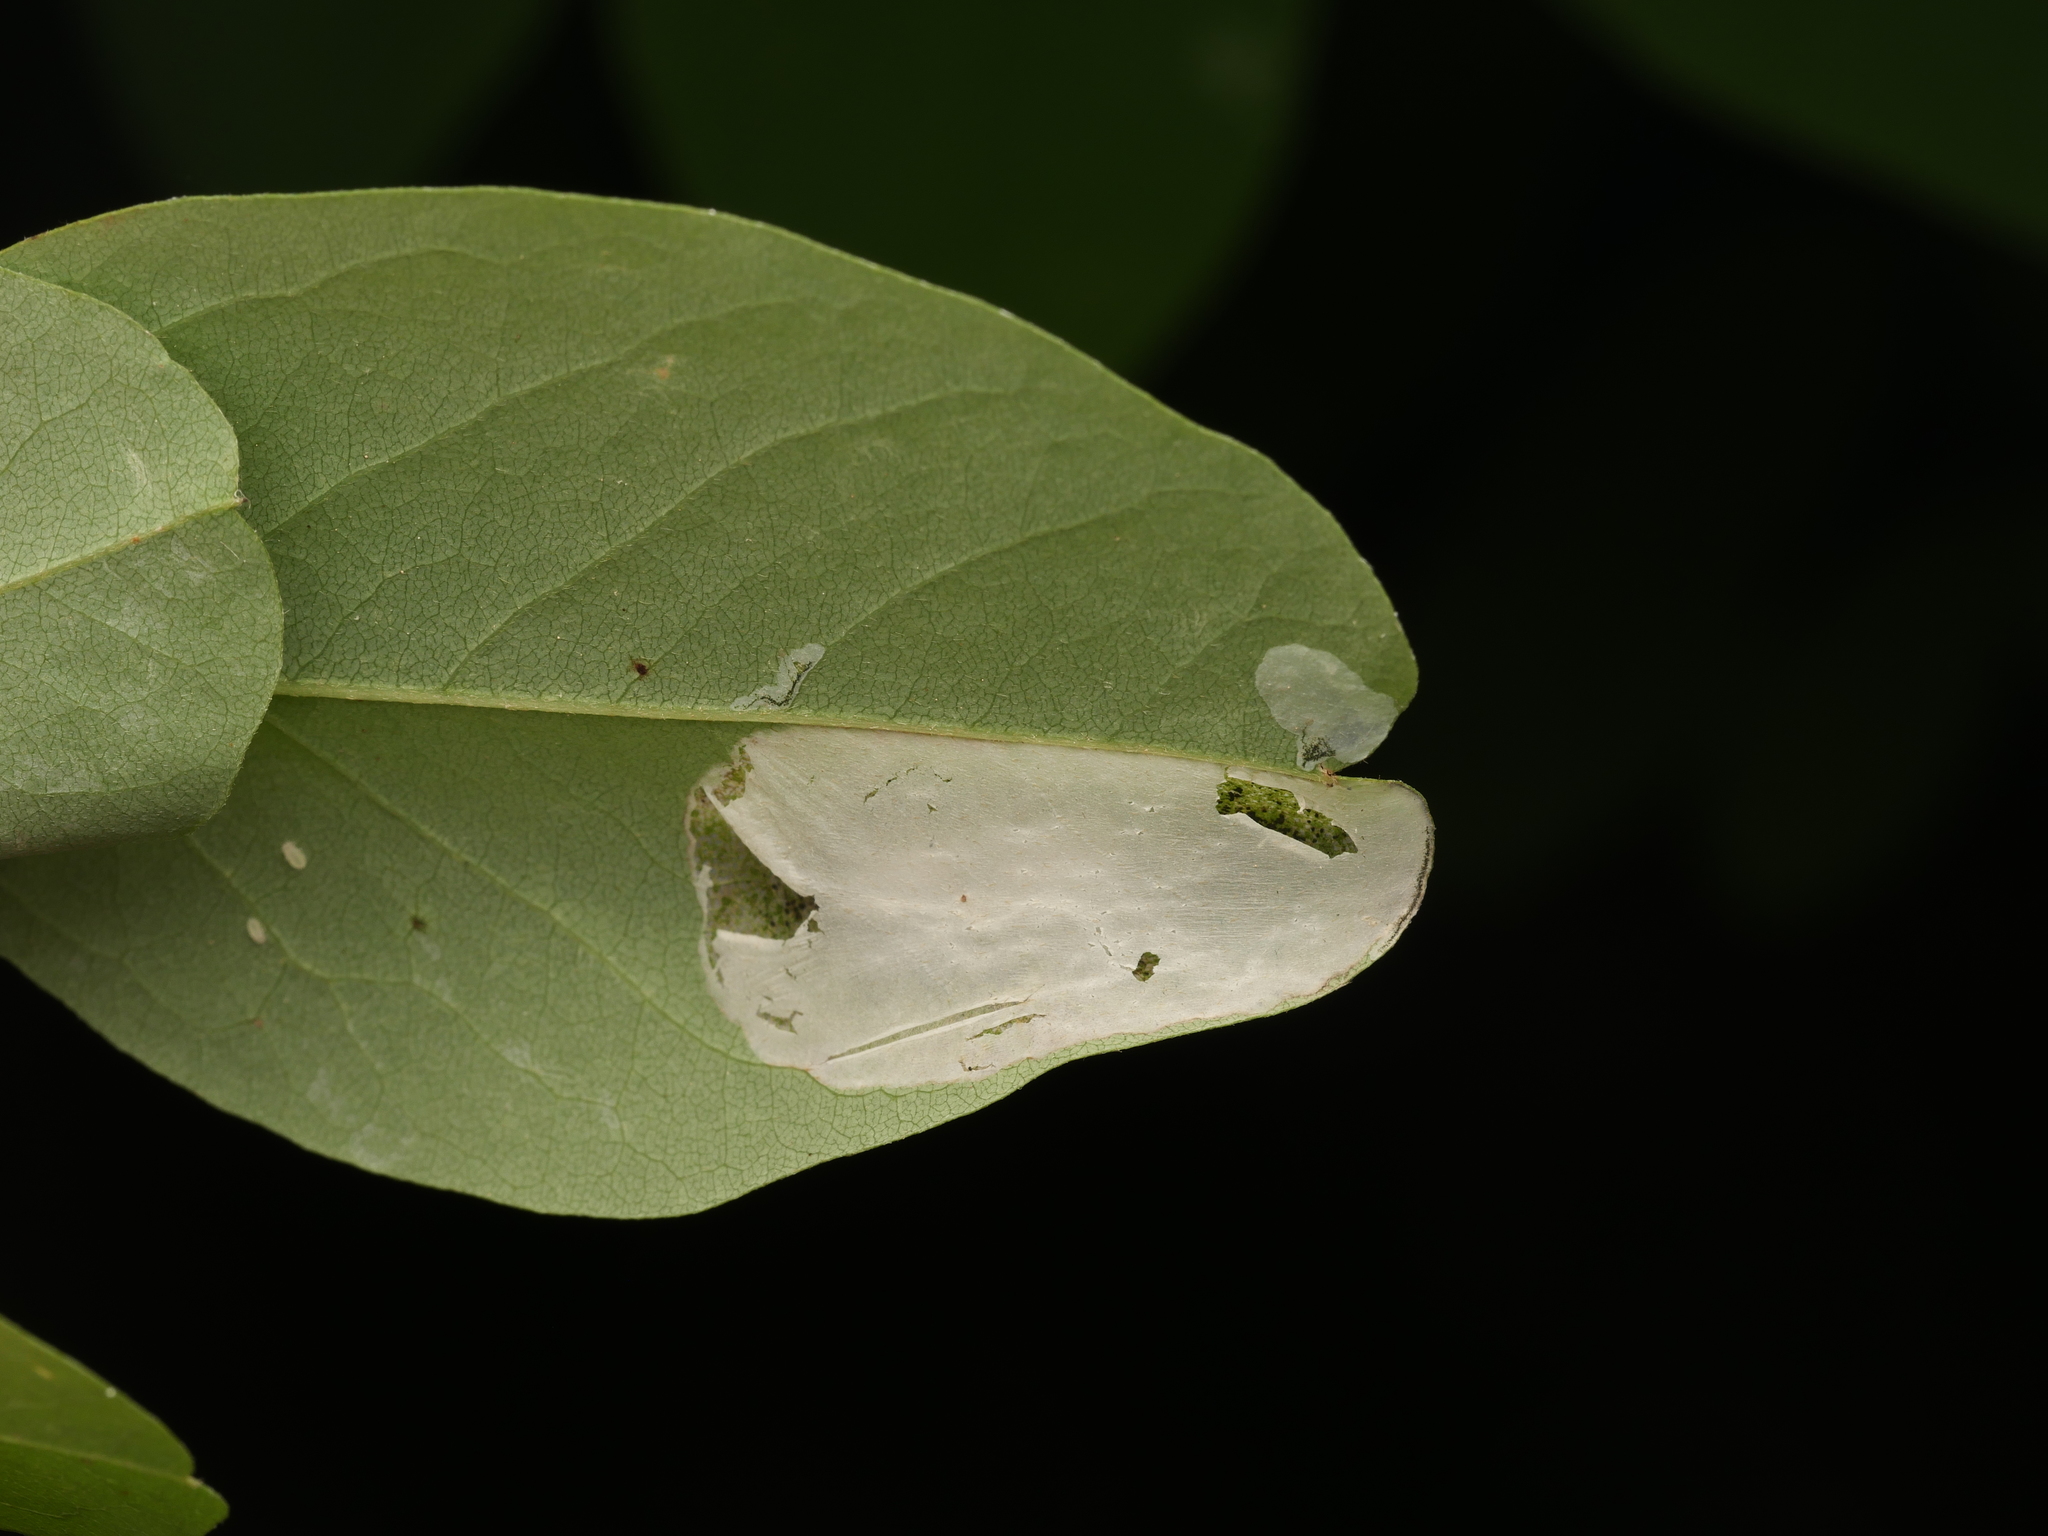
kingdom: Animalia
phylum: Arthropoda
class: Insecta
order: Lepidoptera
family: Gracillariidae
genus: Macrosaccus
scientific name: Macrosaccus robiniella
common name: Leaf blotch miner moth
